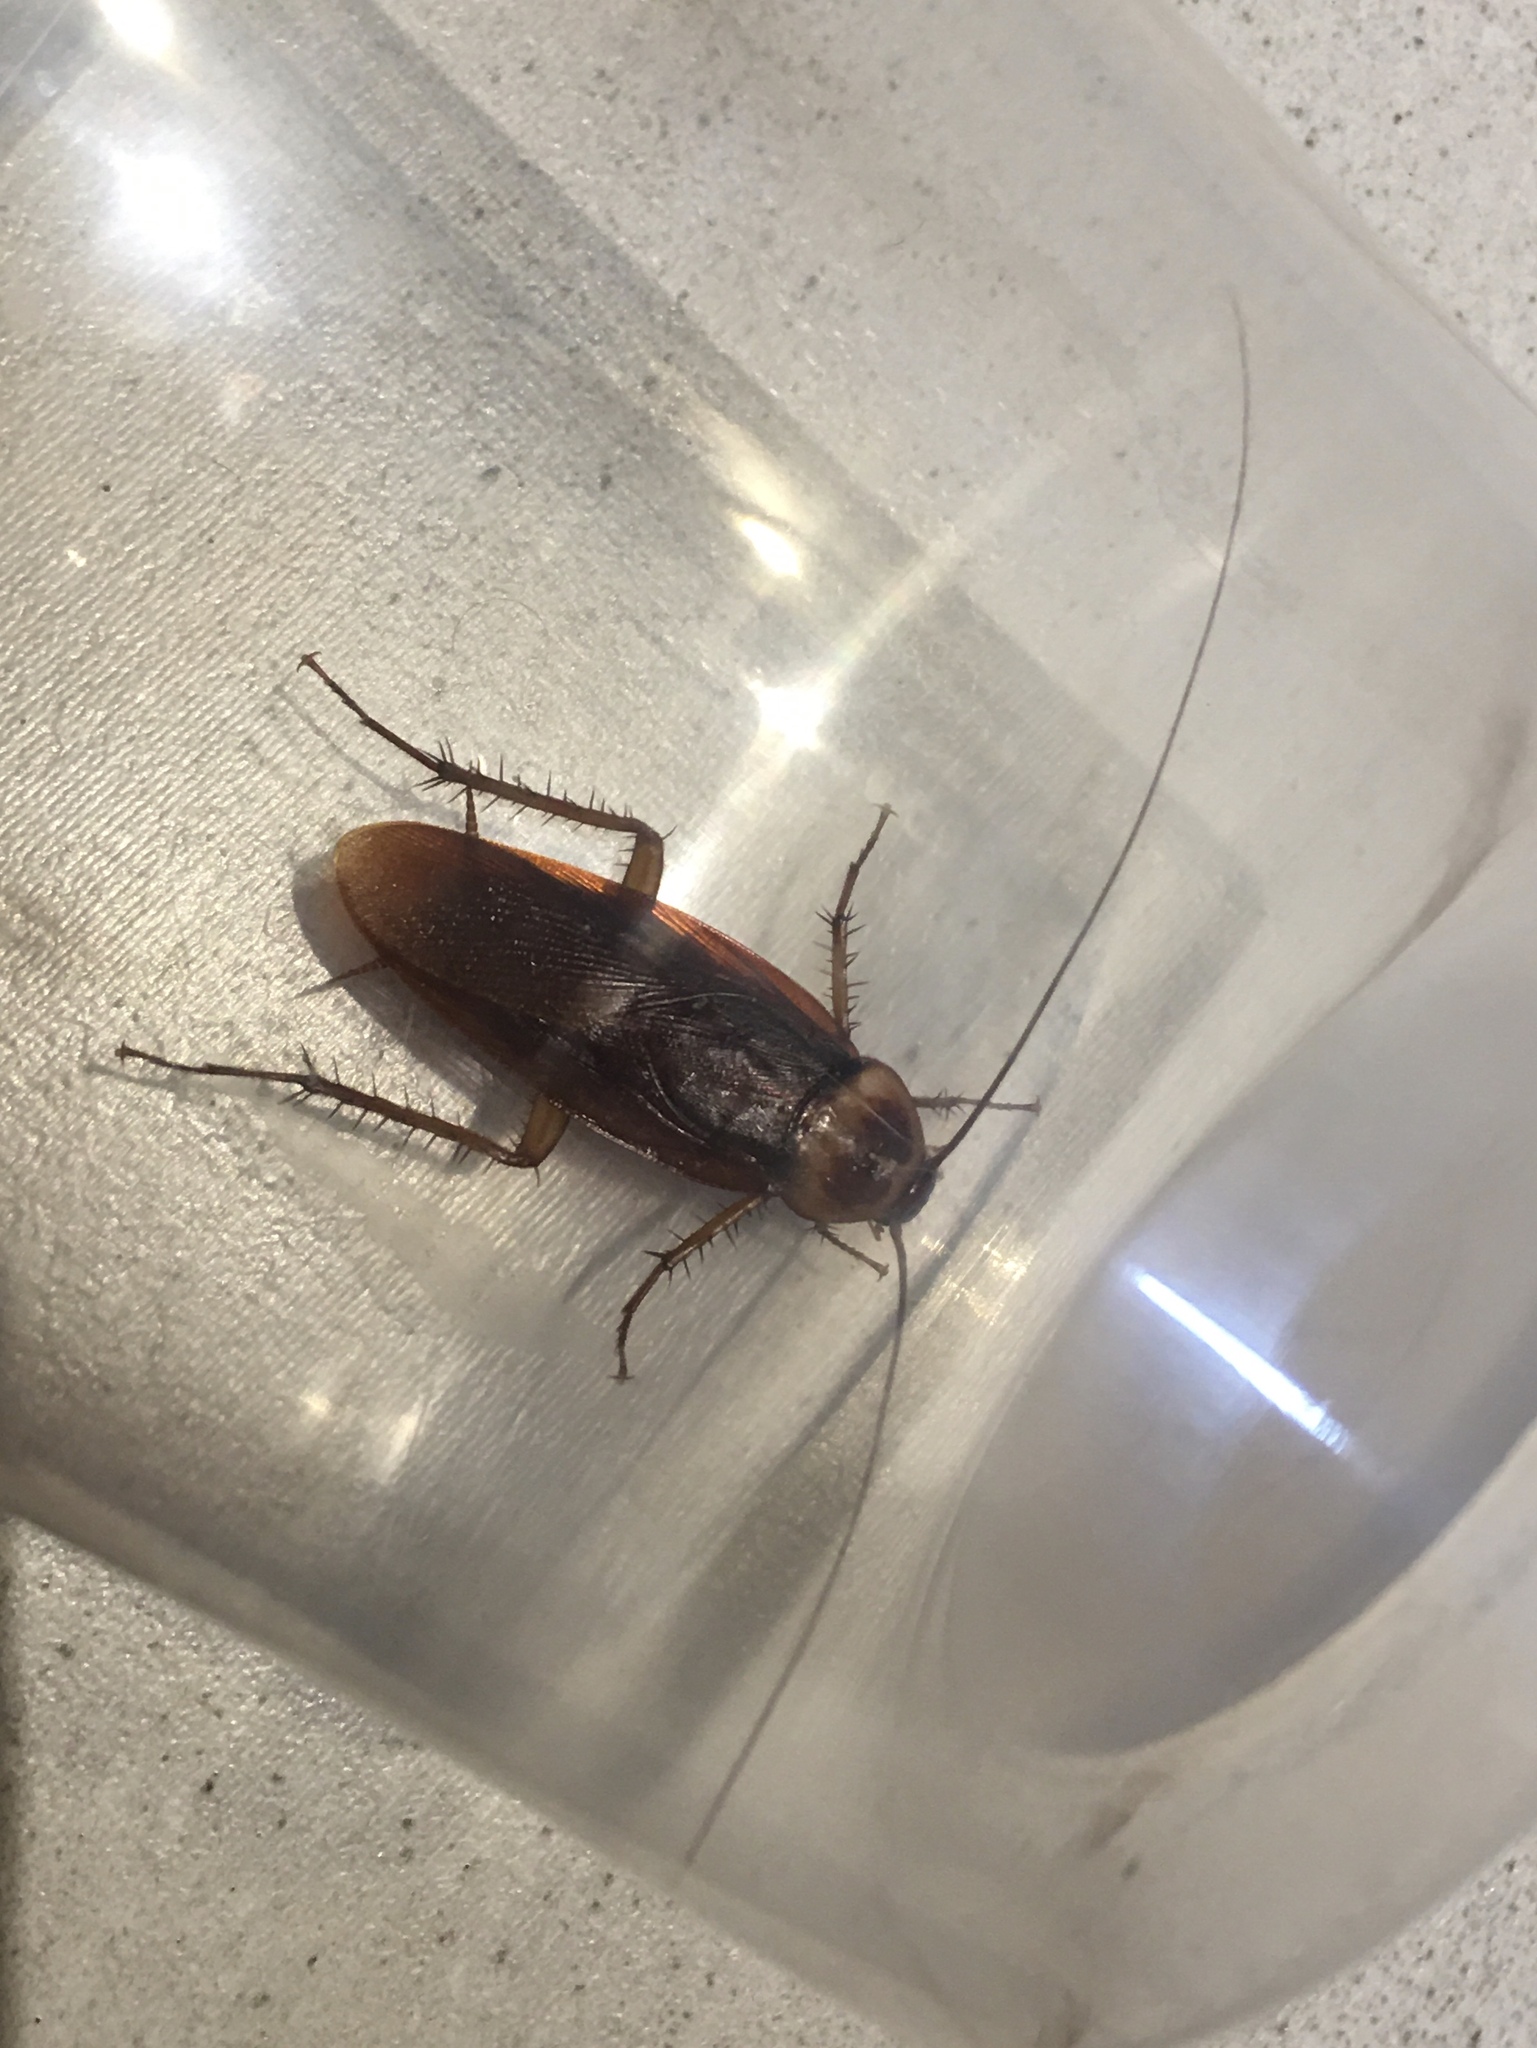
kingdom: Animalia
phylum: Arthropoda
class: Insecta
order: Blattodea
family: Blattidae
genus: Periplaneta
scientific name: Periplaneta americana
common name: American cockroach
